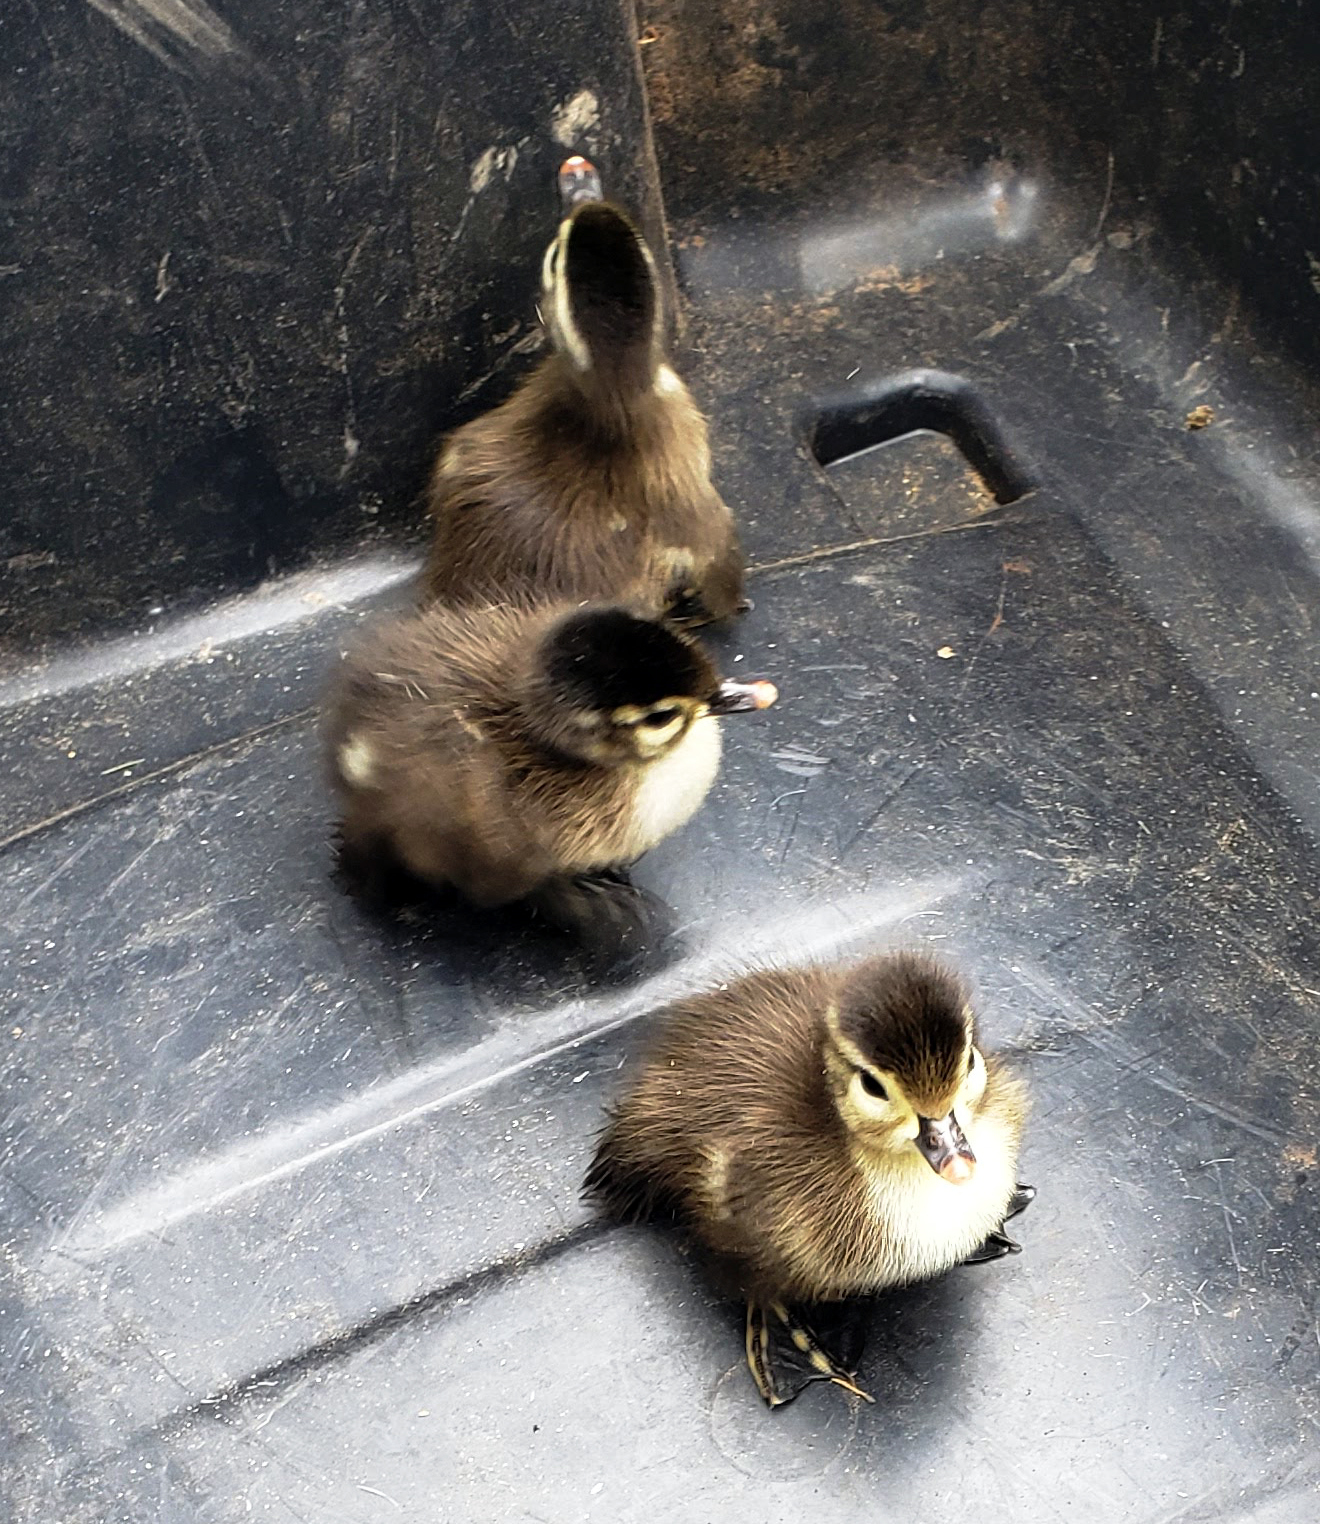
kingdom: Animalia
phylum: Chordata
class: Aves
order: Anseriformes
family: Anatidae
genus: Aix
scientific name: Aix sponsa
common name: Wood duck
